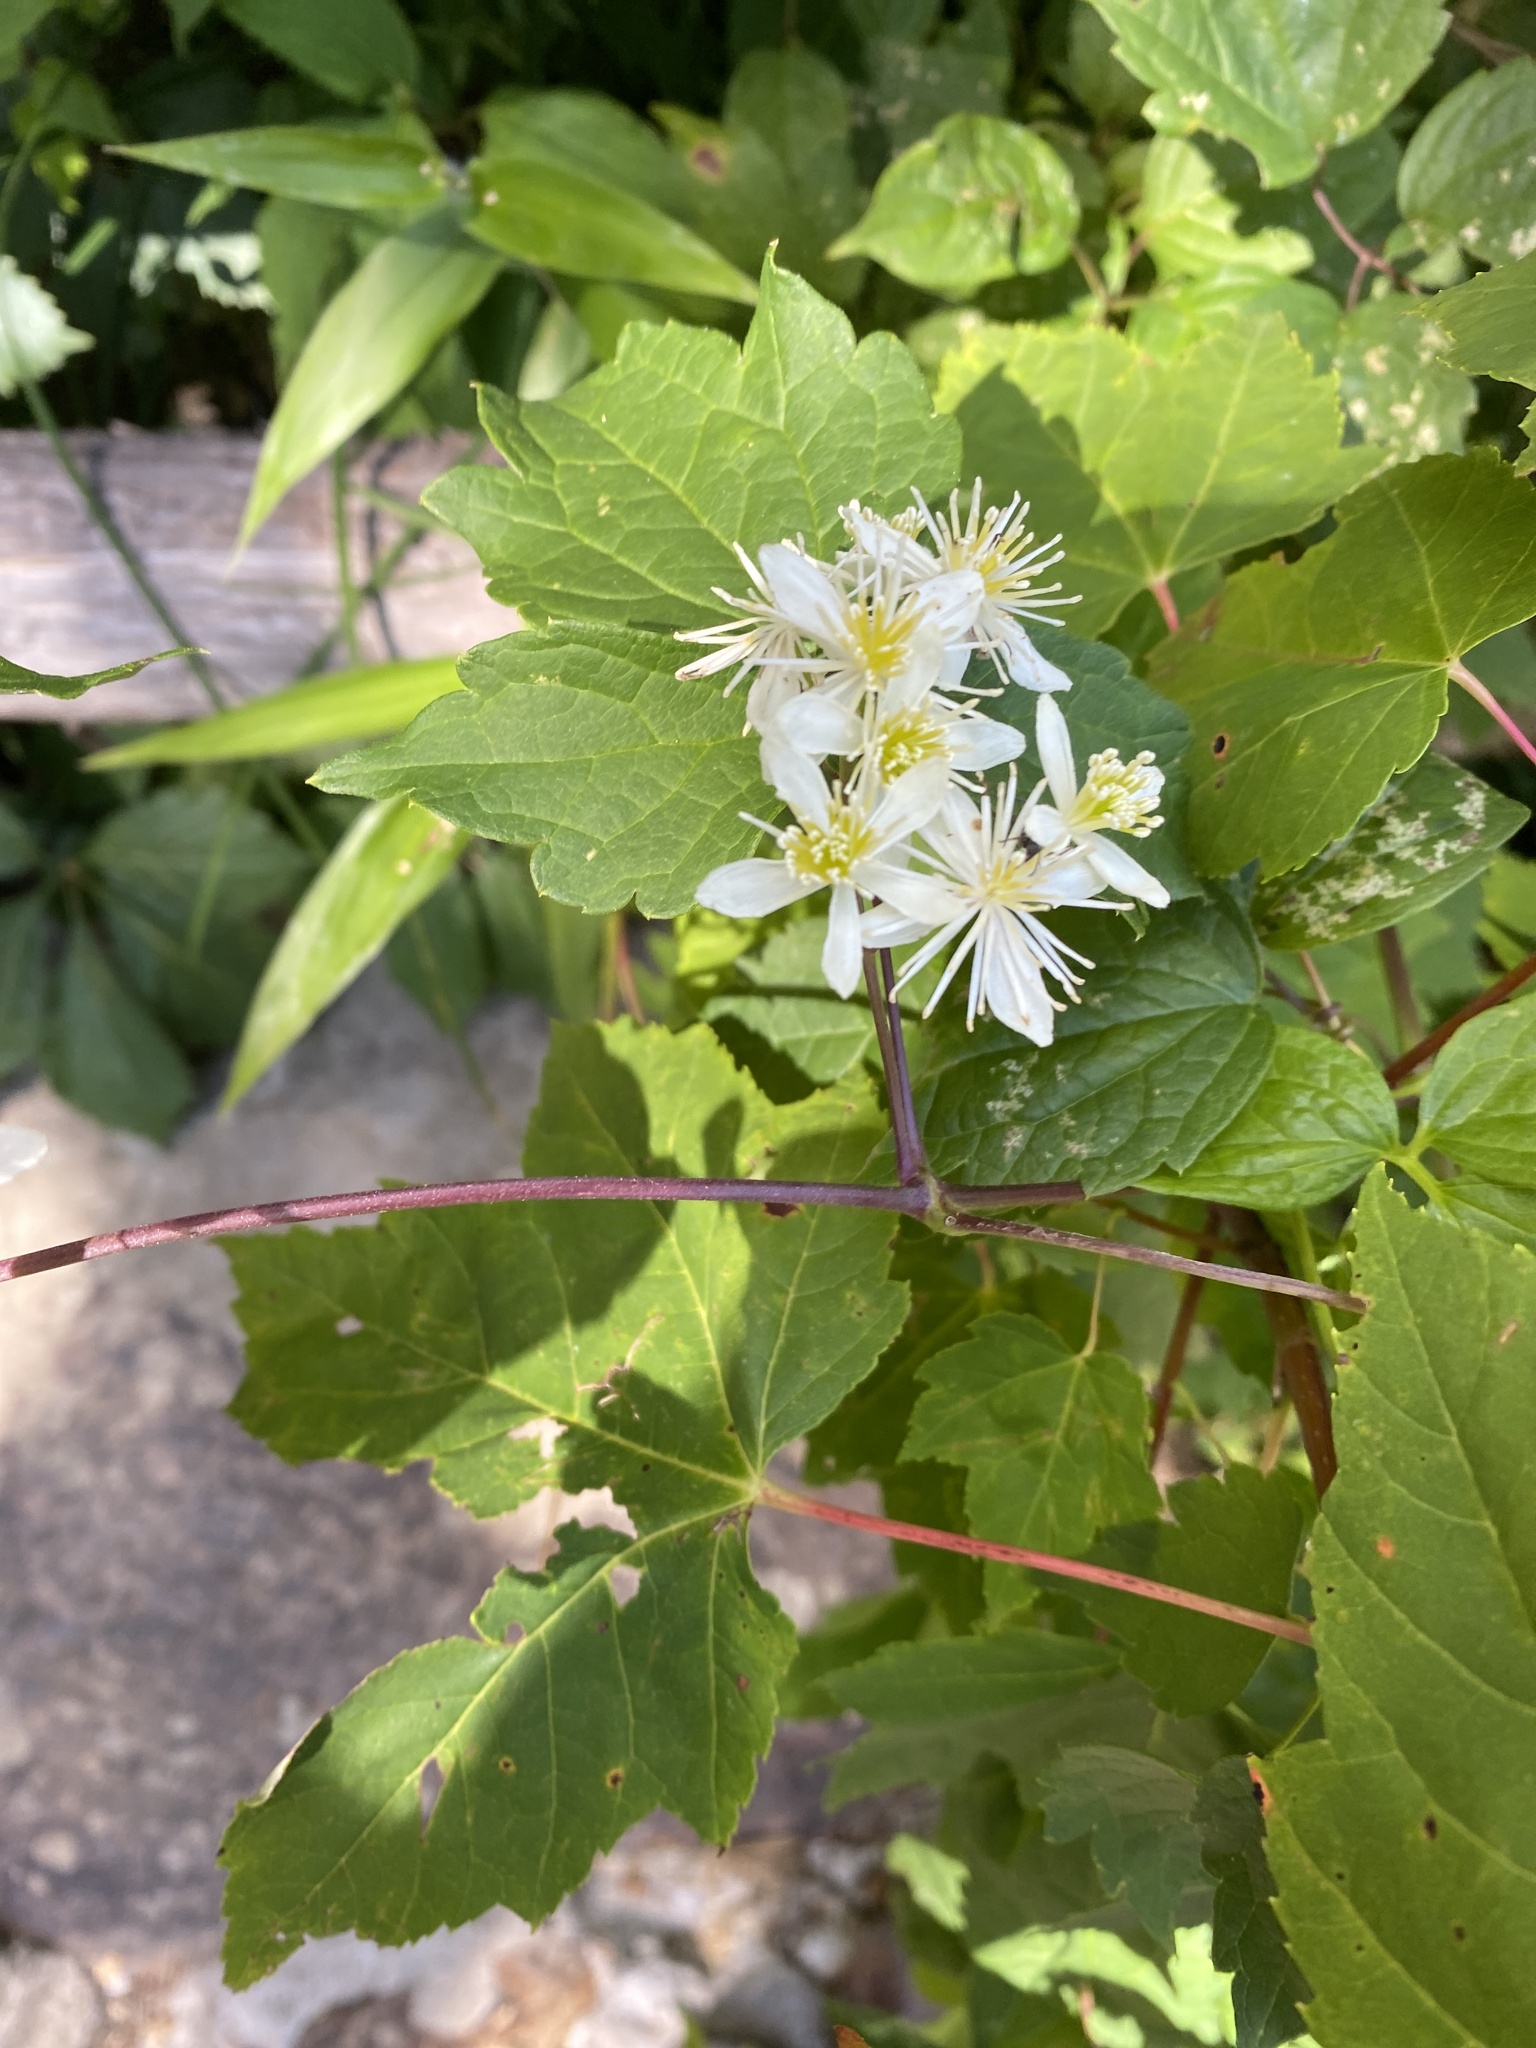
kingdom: Plantae
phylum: Tracheophyta
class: Magnoliopsida
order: Ranunculales
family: Ranunculaceae
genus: Clematis
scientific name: Clematis virginiana
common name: Virgin's-bower
